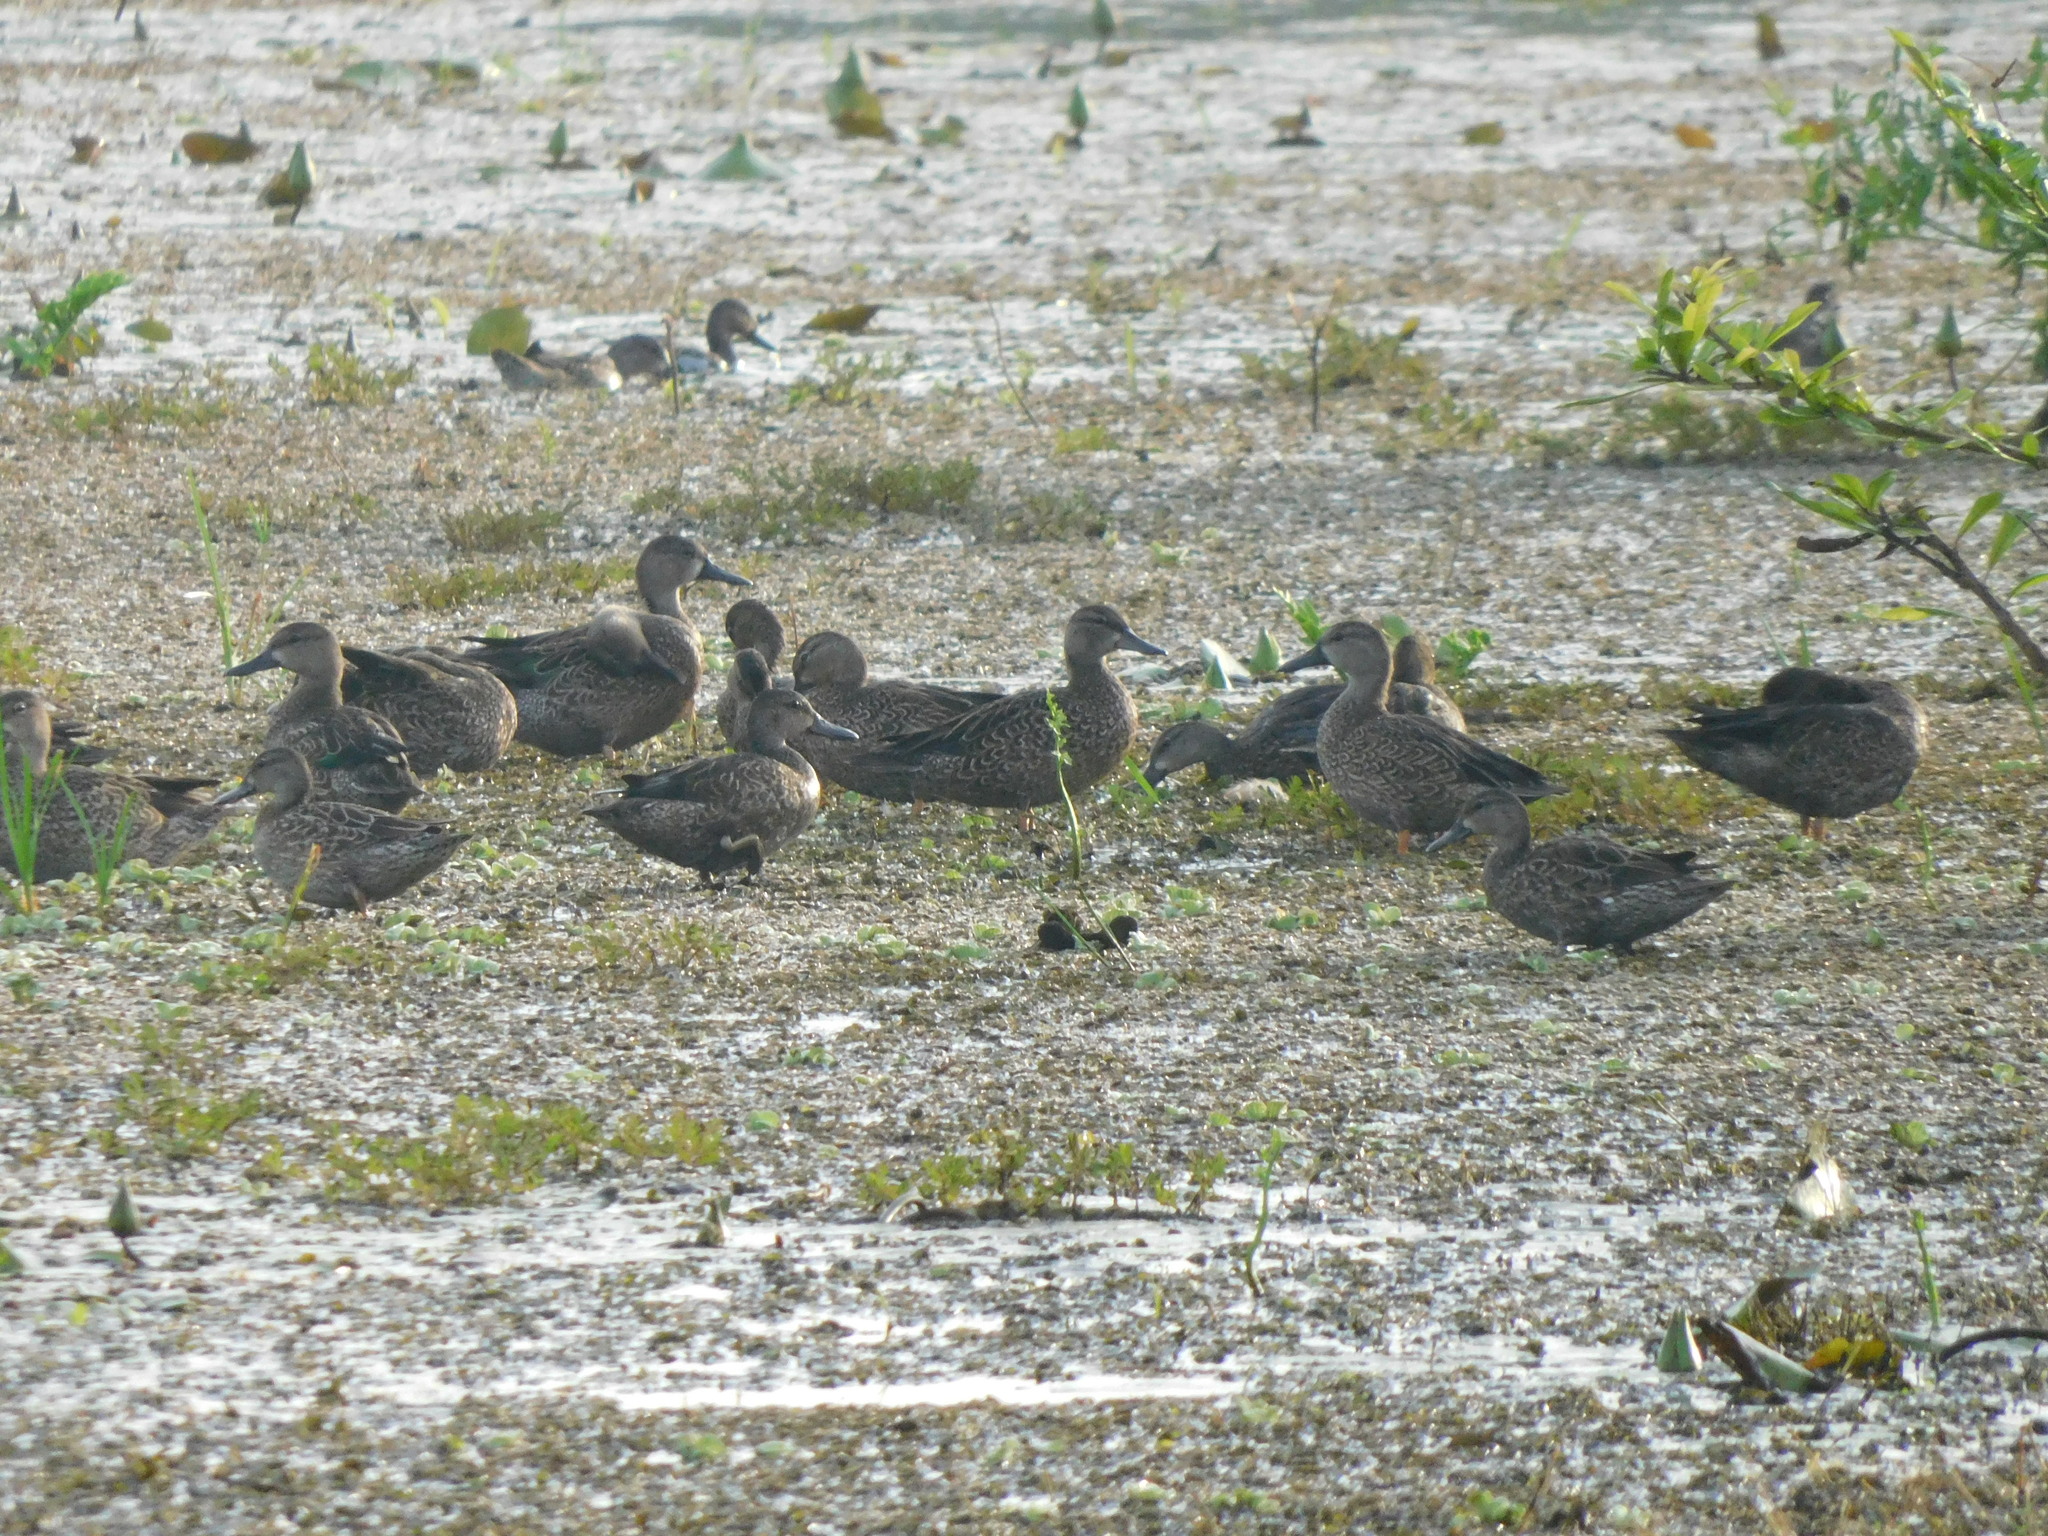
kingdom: Animalia
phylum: Chordata
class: Aves
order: Anseriformes
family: Anatidae
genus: Spatula
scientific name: Spatula discors
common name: Blue-winged teal
